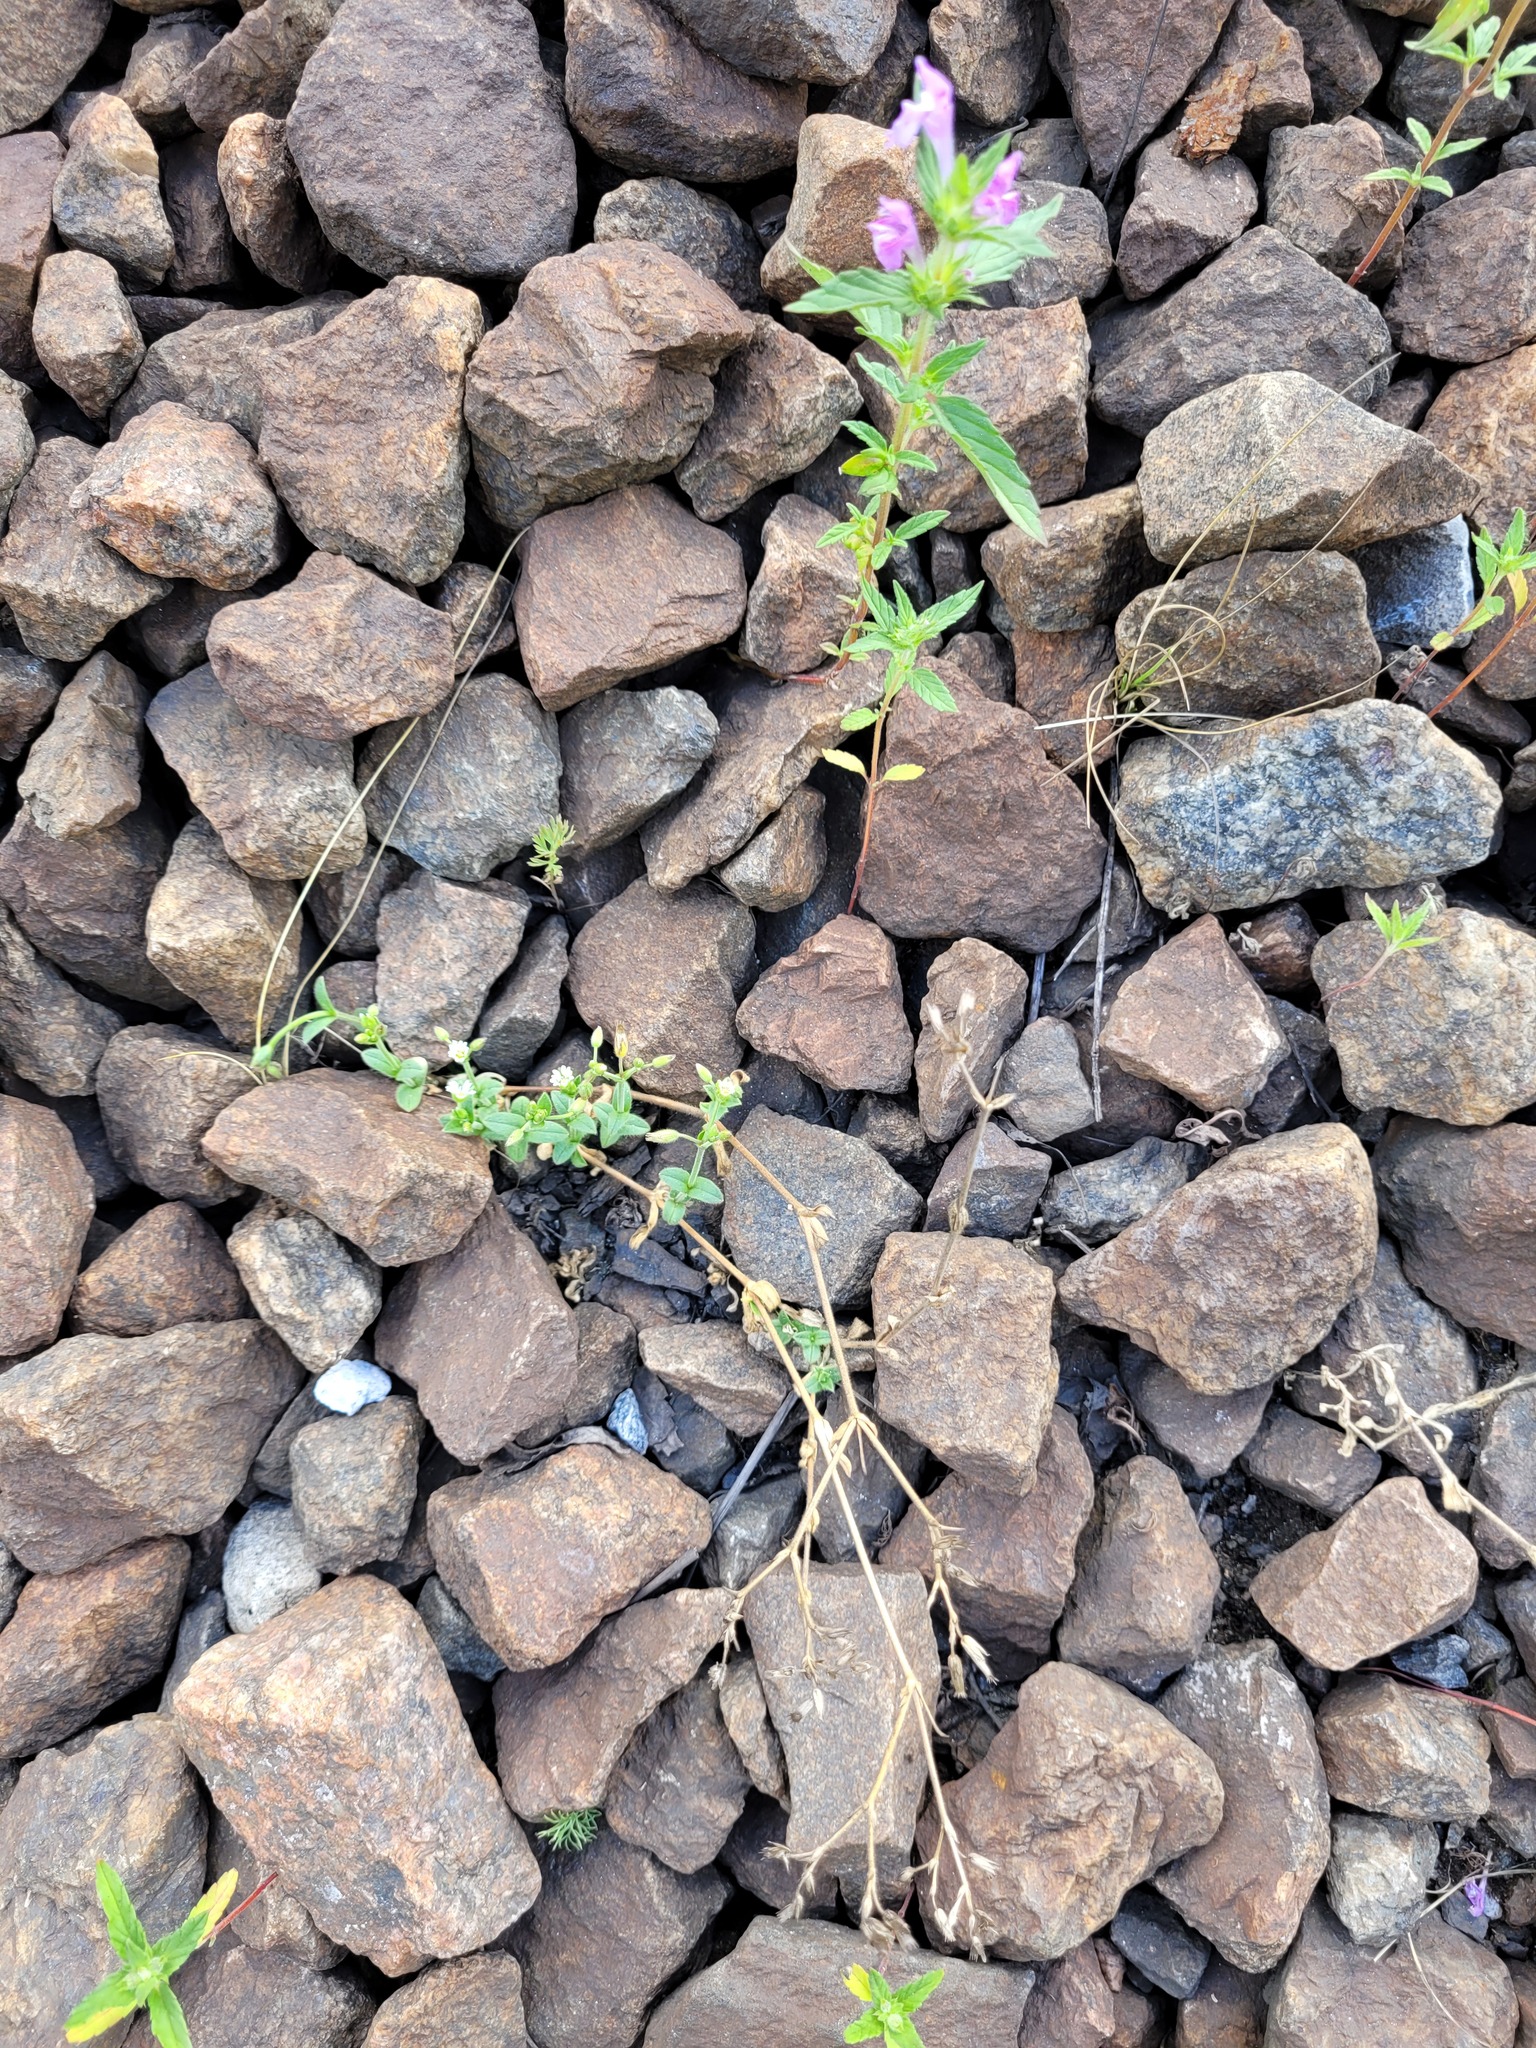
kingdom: Plantae
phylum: Tracheophyta
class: Magnoliopsida
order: Caryophyllales
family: Caryophyllaceae
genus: Cerastium
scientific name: Cerastium holosteoides
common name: Big chickweed
